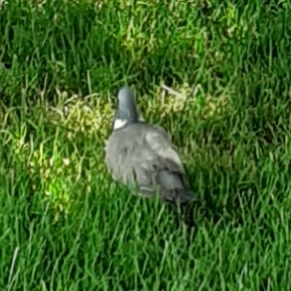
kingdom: Animalia
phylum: Chordata
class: Aves
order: Columbiformes
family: Columbidae
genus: Columba
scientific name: Columba palumbus
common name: Common wood pigeon
